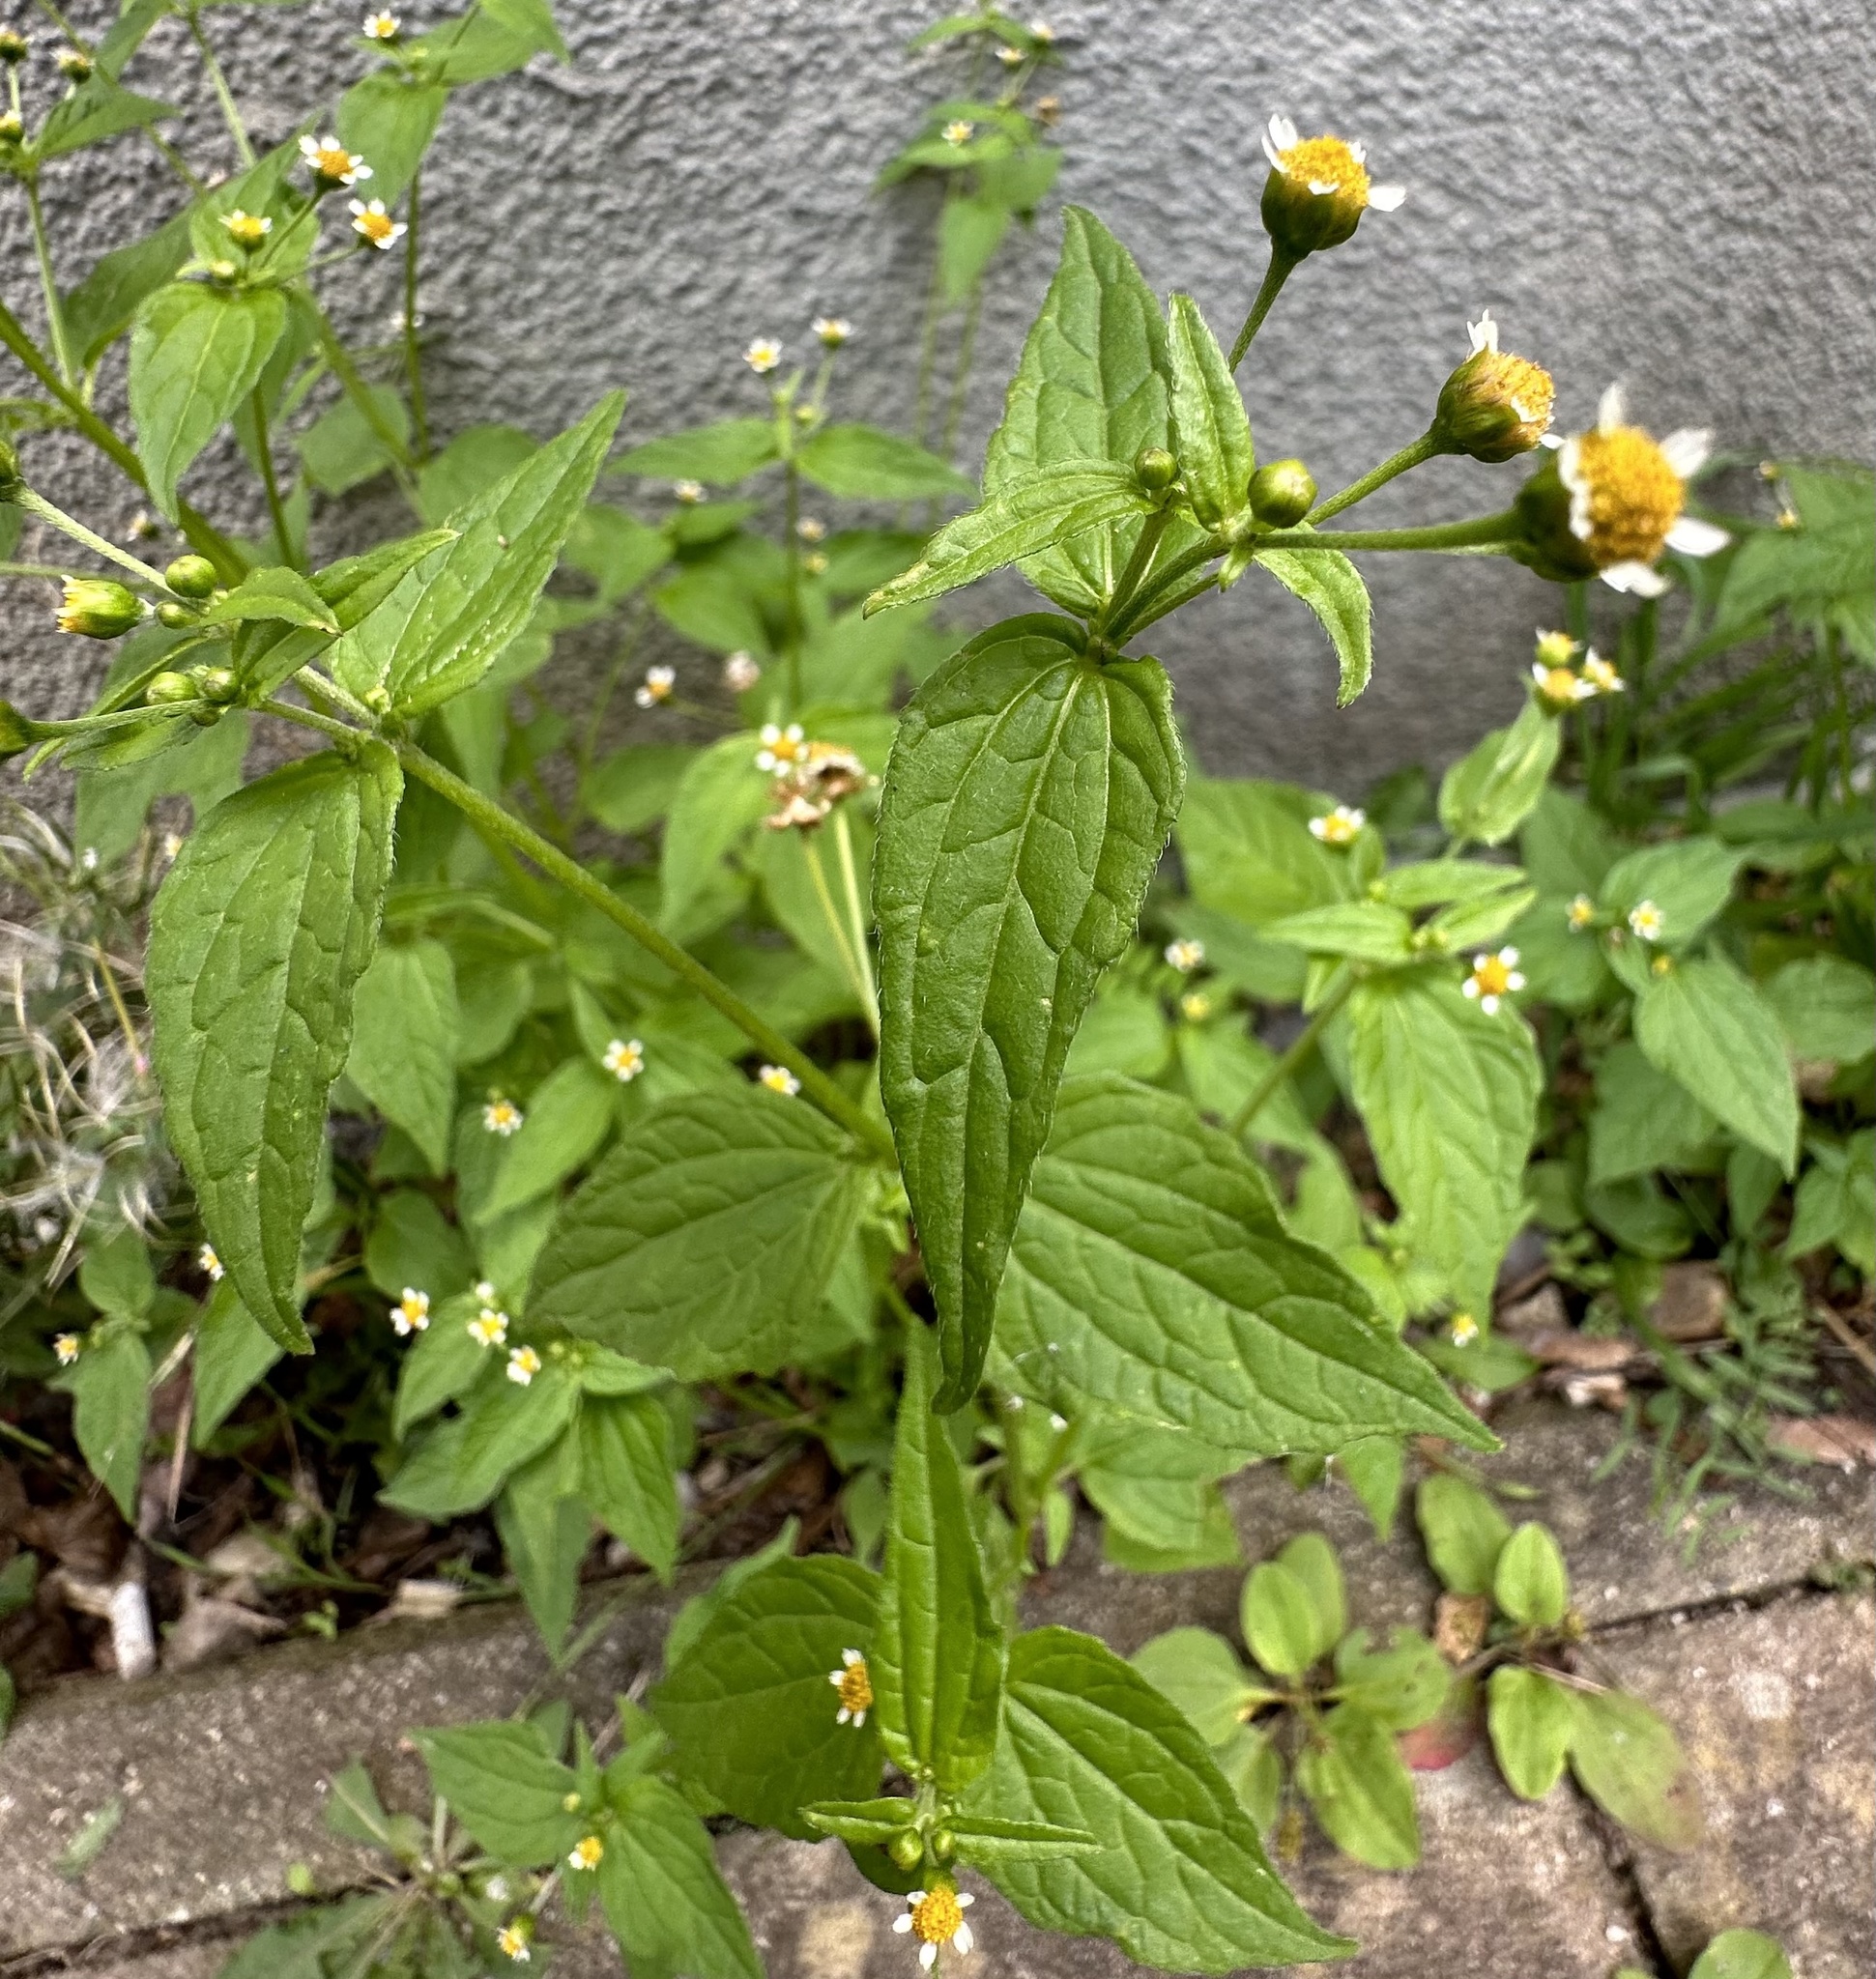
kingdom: Plantae
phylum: Tracheophyta
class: Magnoliopsida
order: Asterales
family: Asteraceae
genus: Galinsoga
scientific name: Galinsoga parviflora
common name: Gallant soldier
